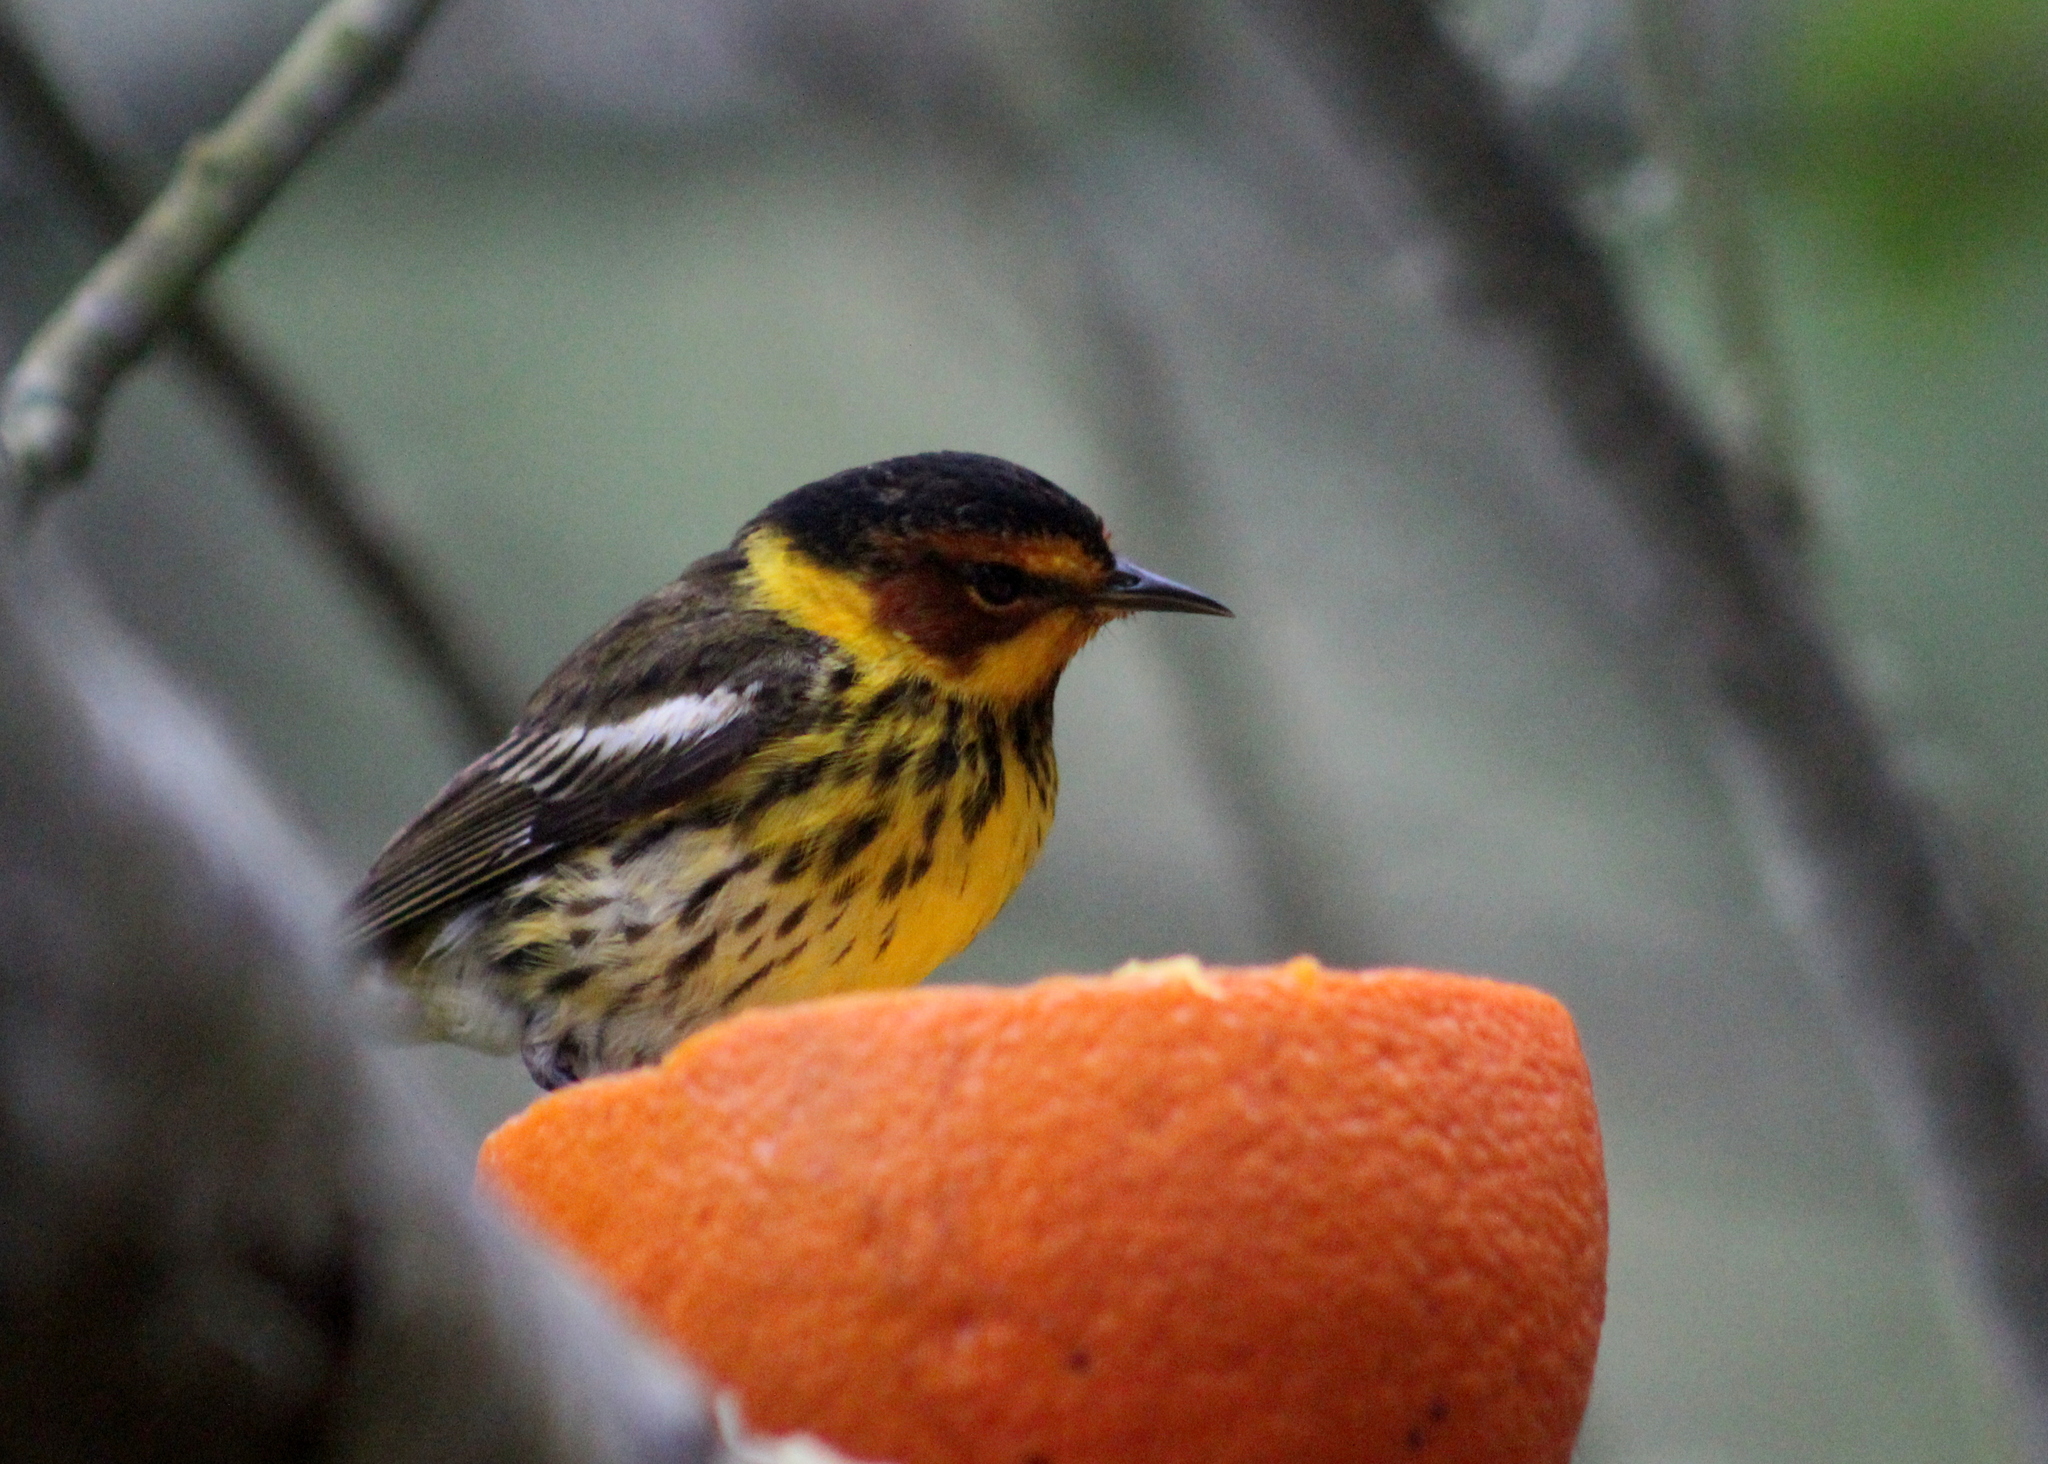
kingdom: Animalia
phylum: Chordata
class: Aves
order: Passeriformes
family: Parulidae
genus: Setophaga
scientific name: Setophaga tigrina
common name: Cape may warbler
